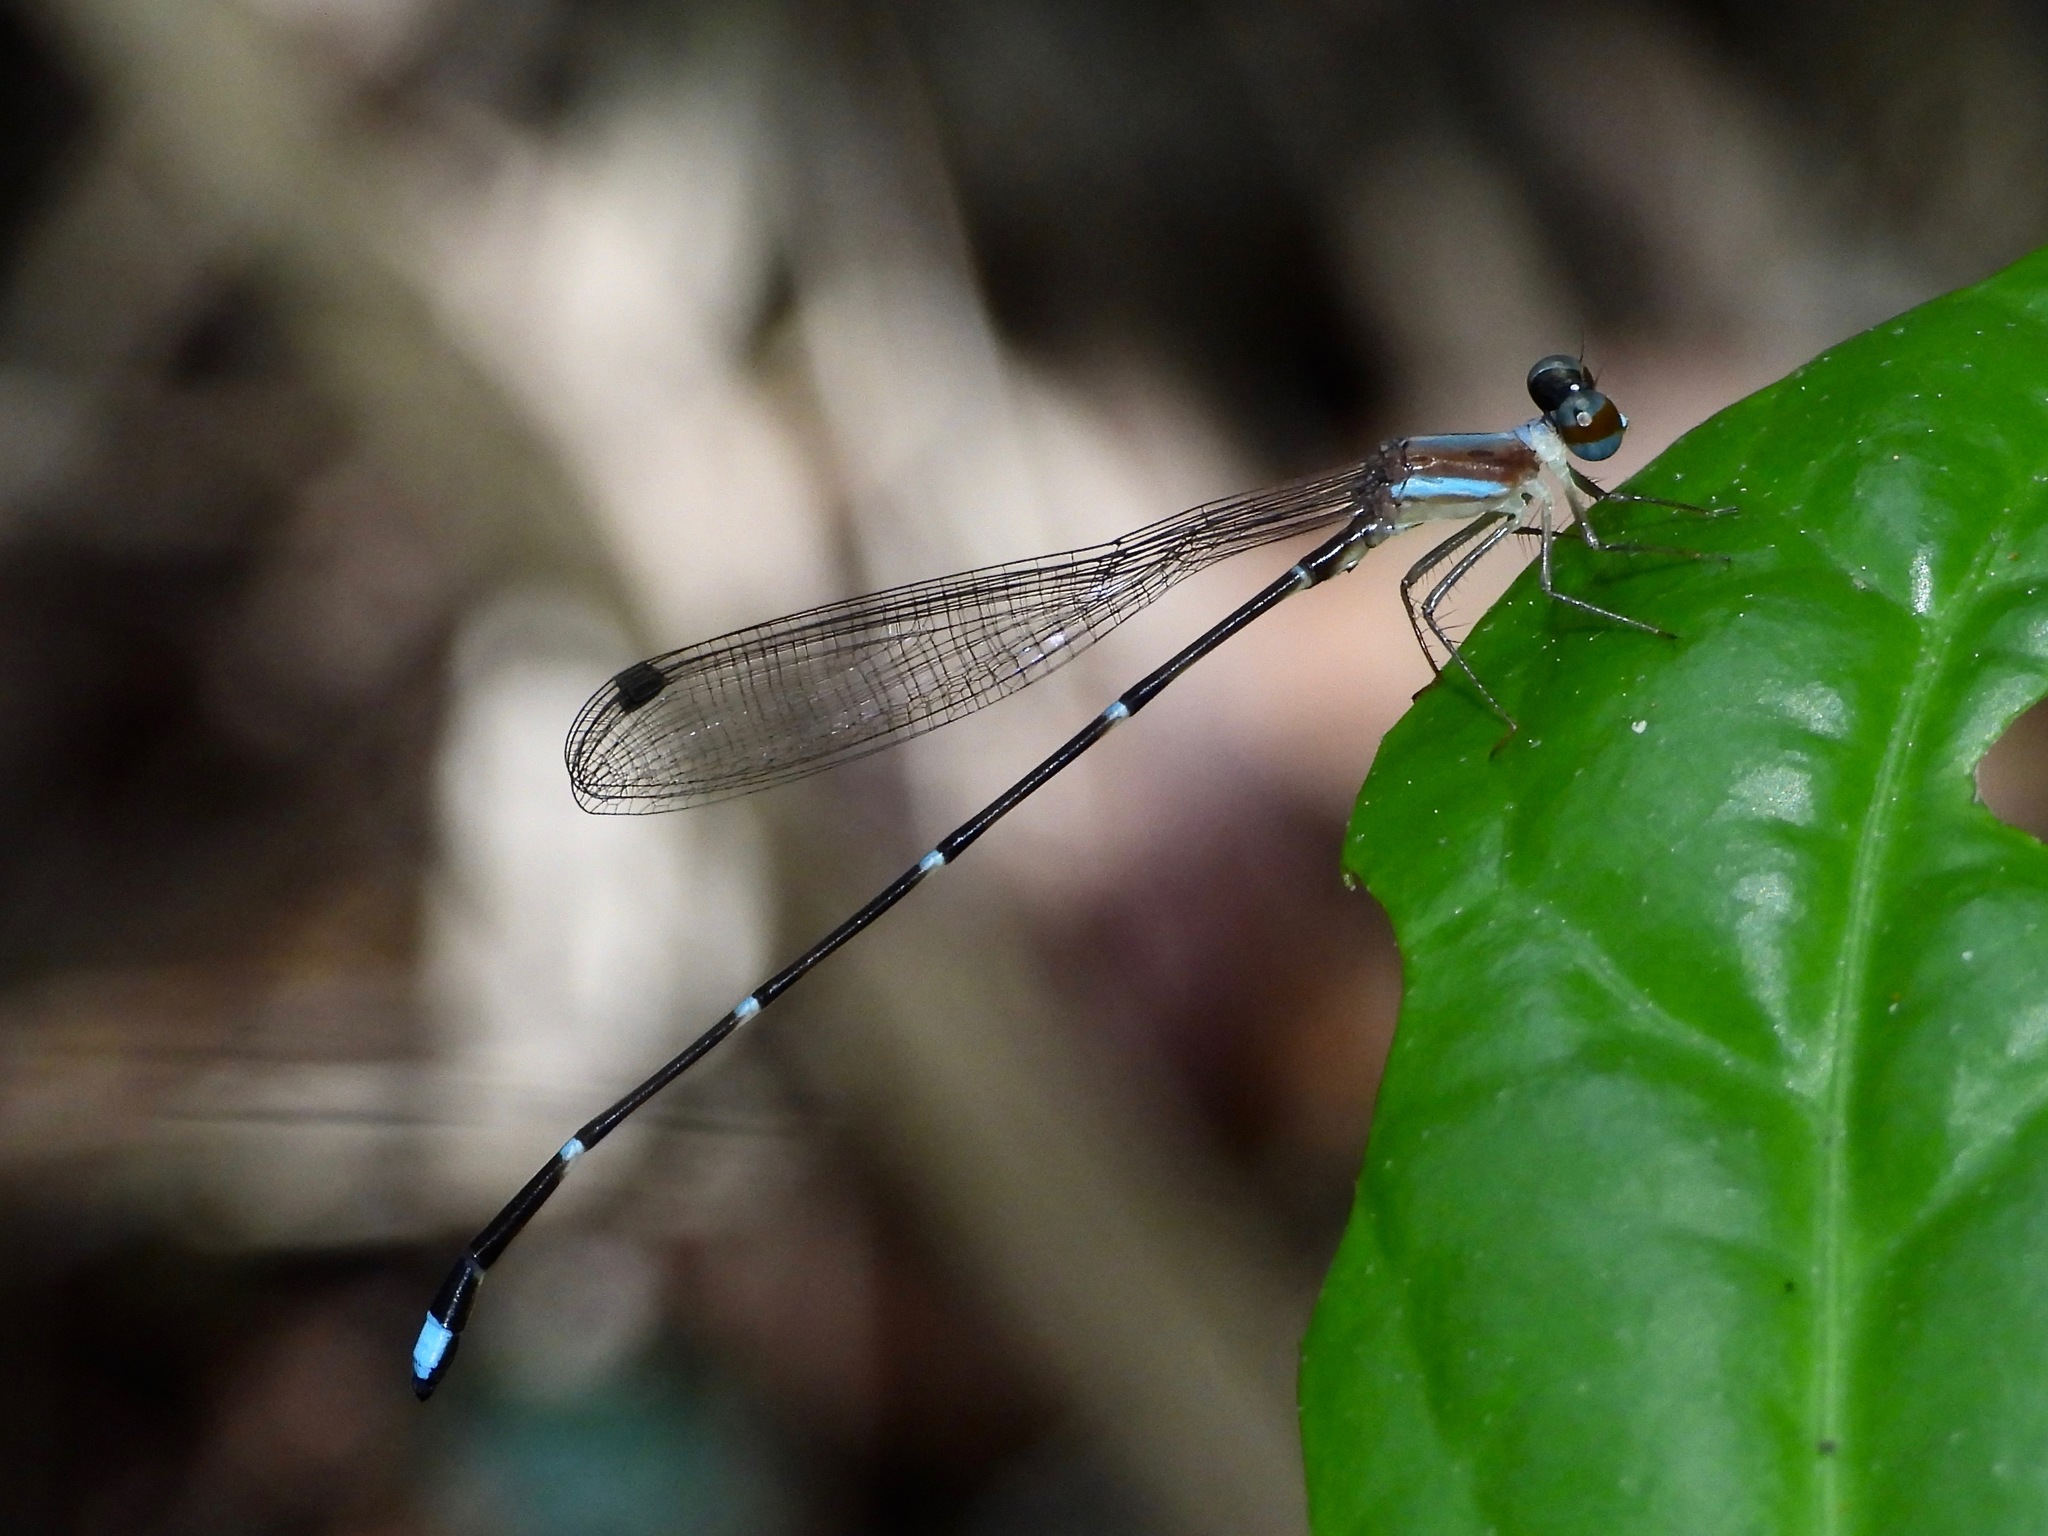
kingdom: Animalia
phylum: Arthropoda
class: Insecta
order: Odonata
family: Platystictidae
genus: Ceylonosticta
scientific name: Ceylonosticta austeni
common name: Austin’s shadowdamsel
